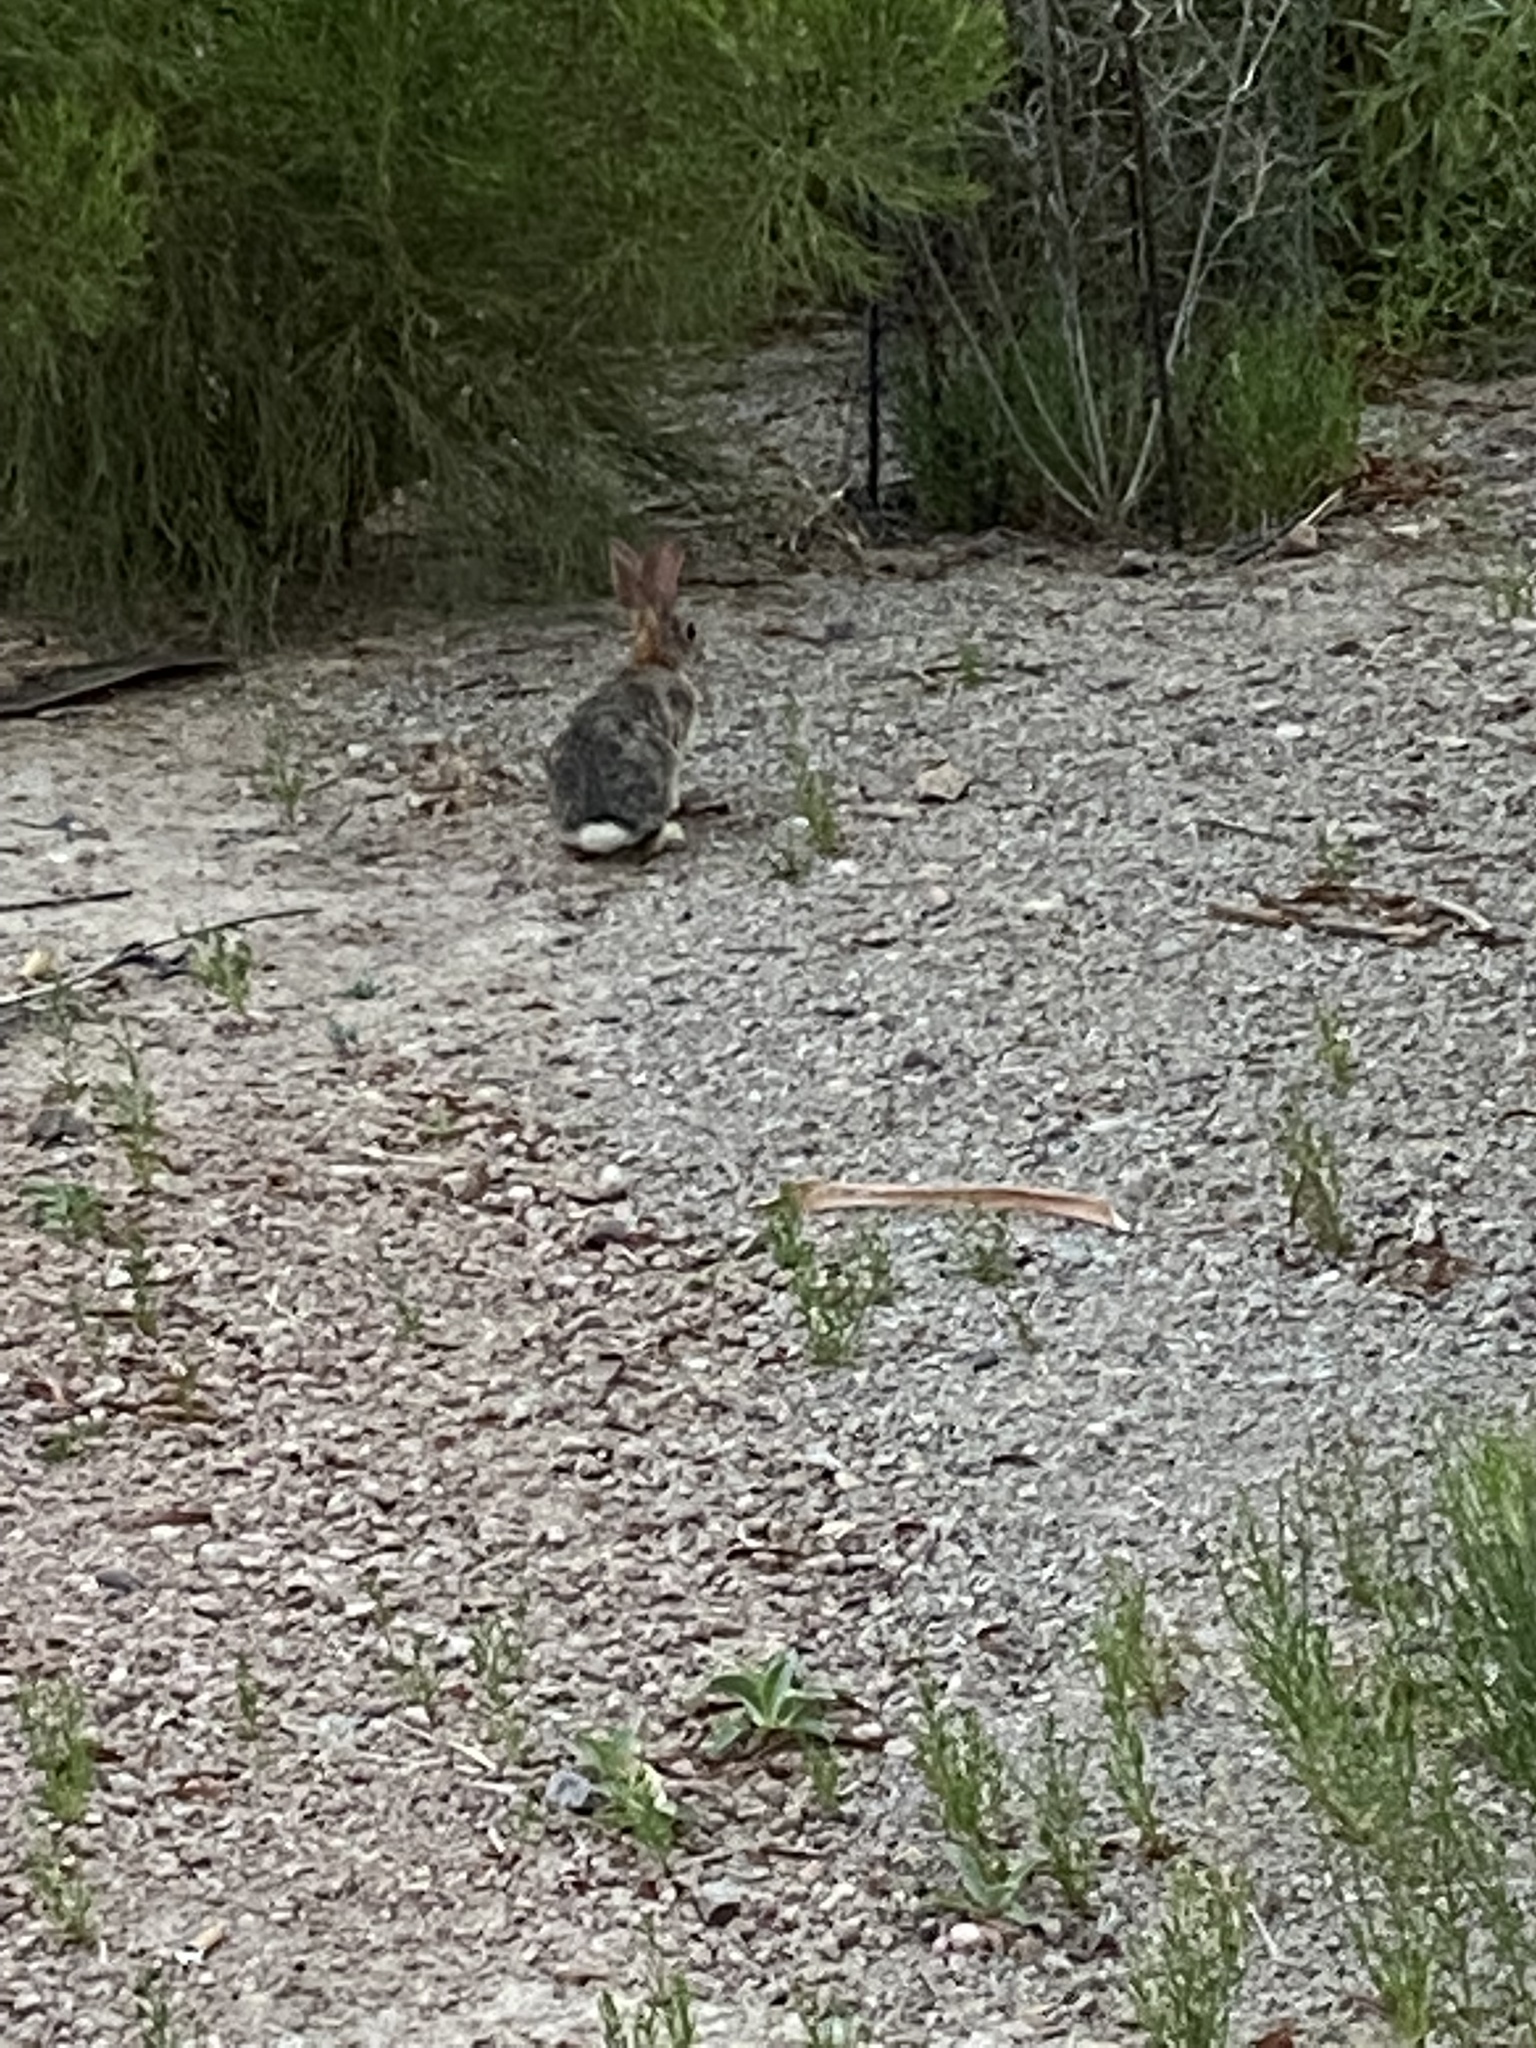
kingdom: Animalia
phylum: Chordata
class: Mammalia
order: Lagomorpha
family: Leporidae
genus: Sylvilagus
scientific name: Sylvilagus audubonii
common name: Desert cottontail
